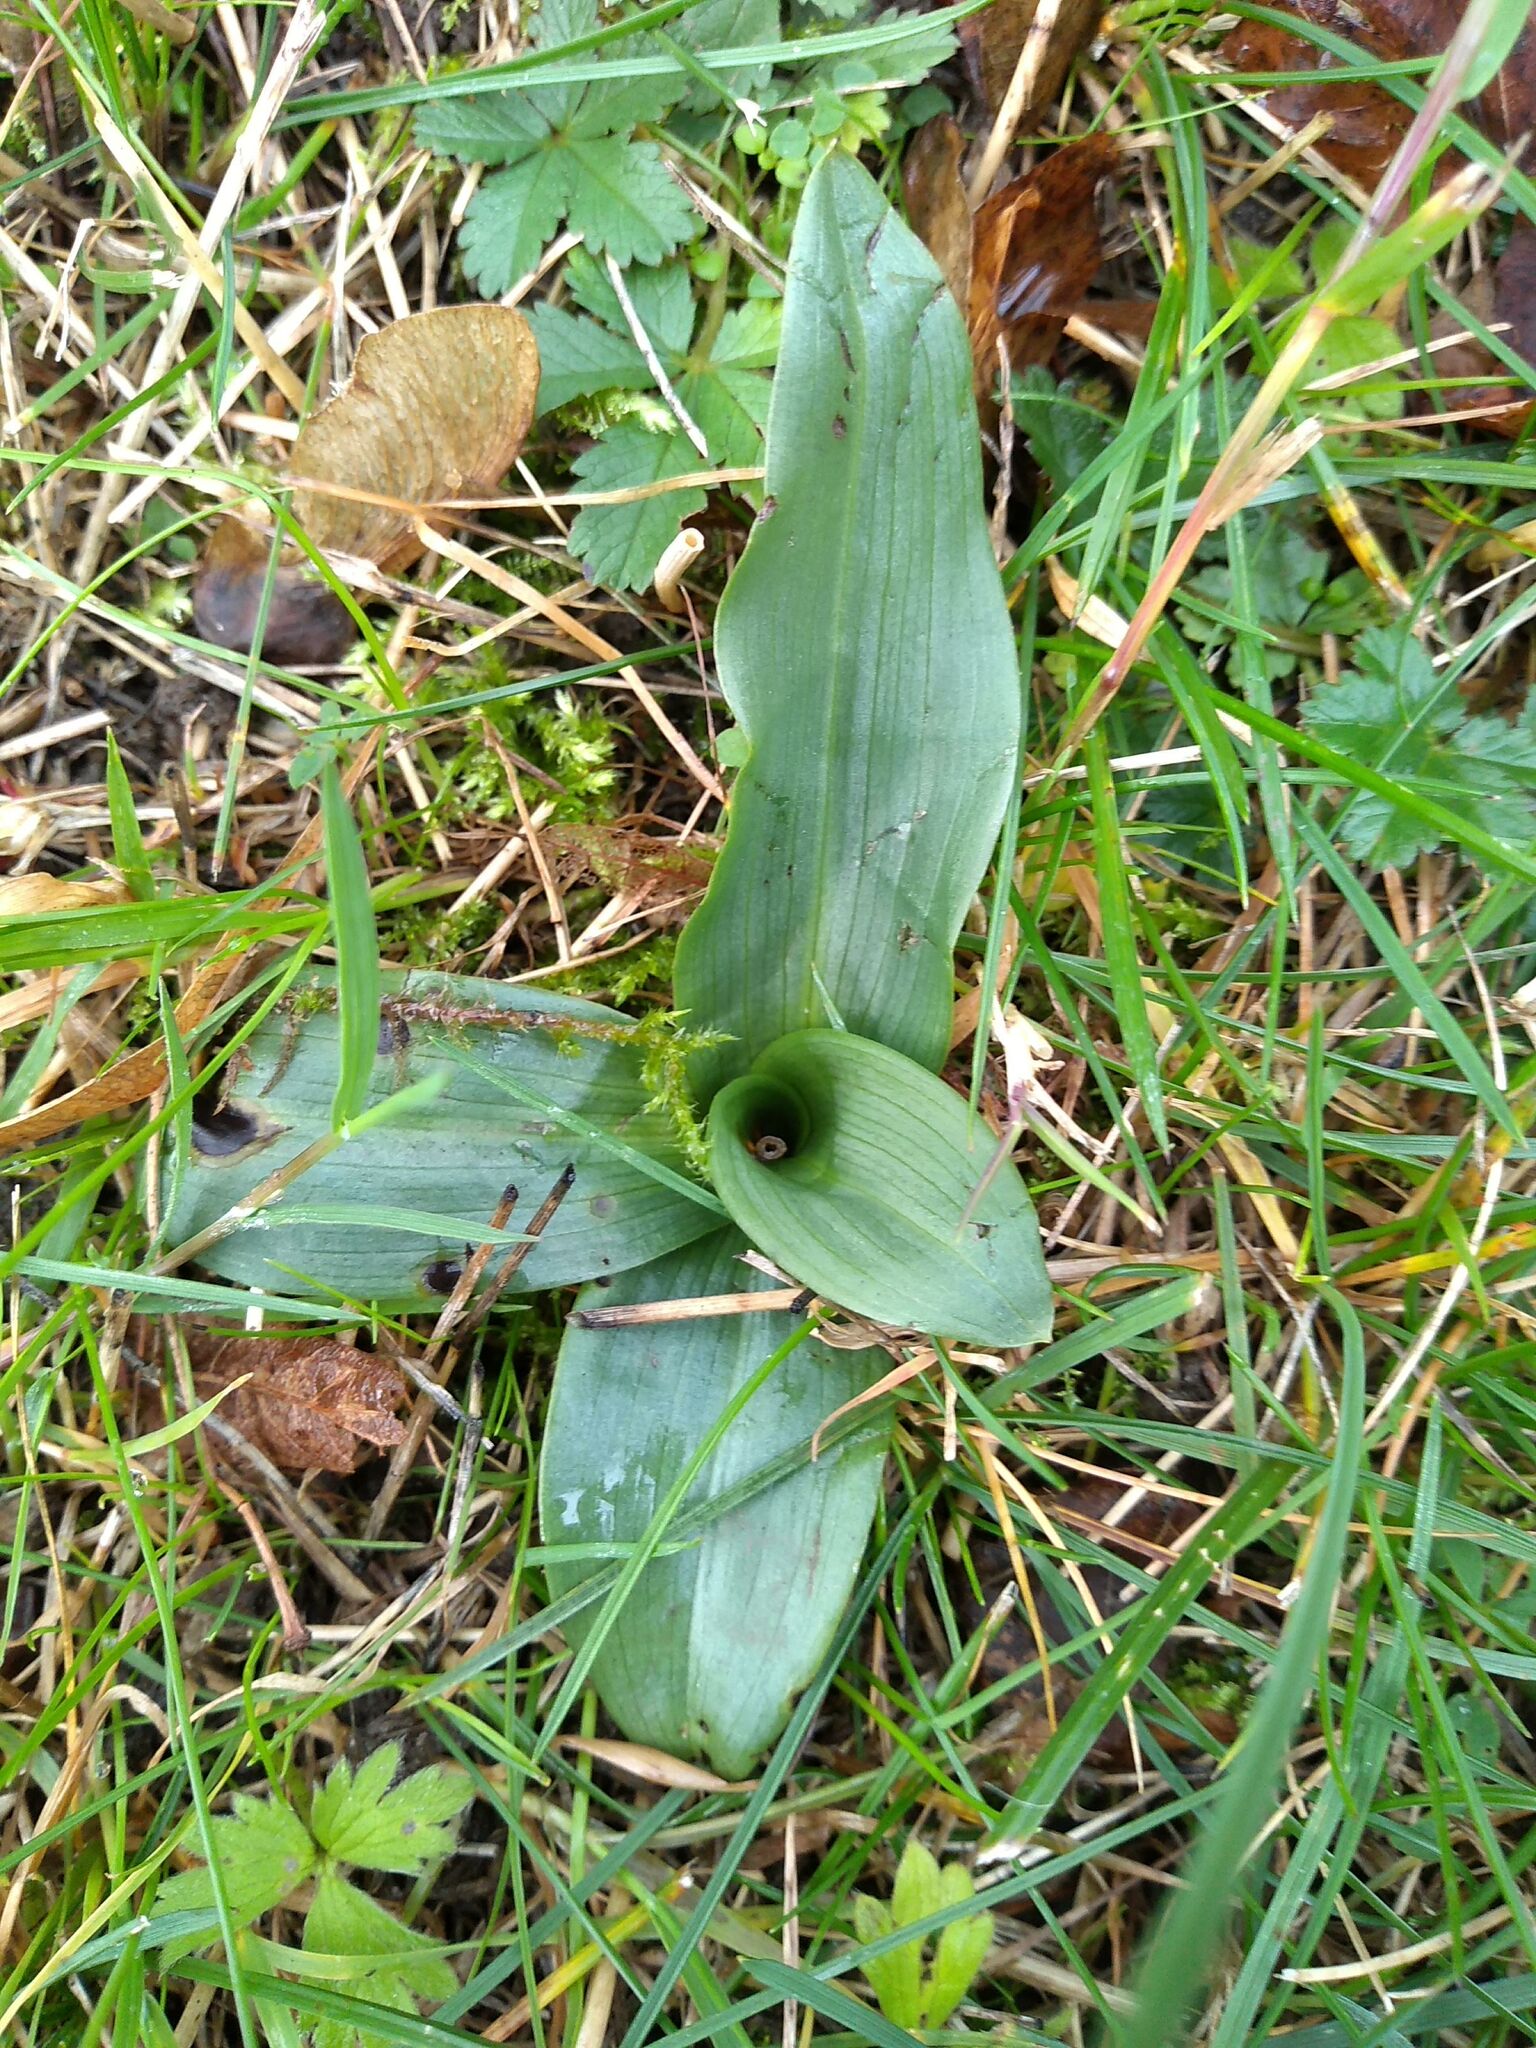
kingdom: Plantae
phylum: Tracheophyta
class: Liliopsida
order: Asparagales
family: Orchidaceae
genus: Ophrys
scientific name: Ophrys apifera
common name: Bee orchid
